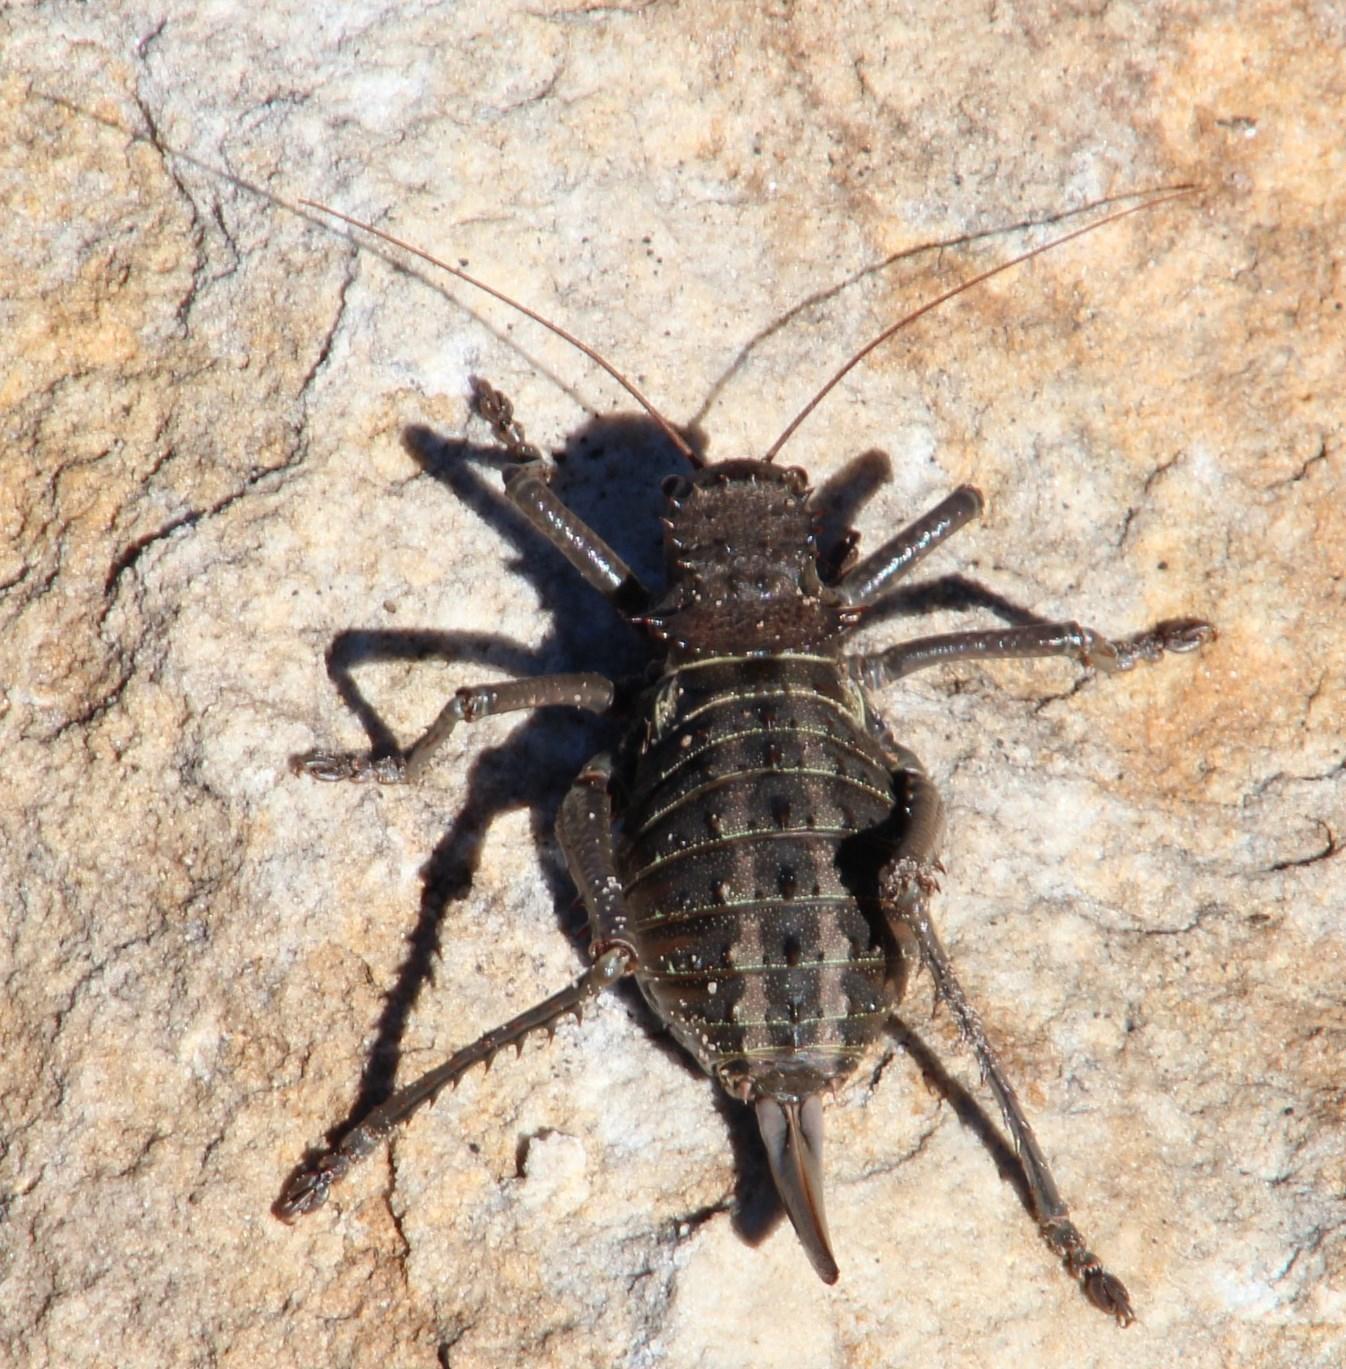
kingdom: Animalia
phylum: Arthropoda
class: Insecta
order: Orthoptera
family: Tettigoniidae
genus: Hetrodes
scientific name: Hetrodes pupus
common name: Koringkriek
